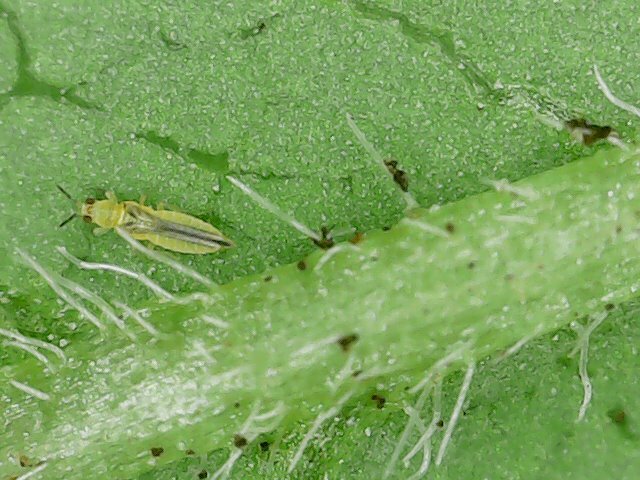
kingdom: Animalia
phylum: Arthropoda
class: Insecta
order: Thysanoptera
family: Thripidae
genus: Scirtothrips
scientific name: Scirtothrips dorsalis
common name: Thrips
